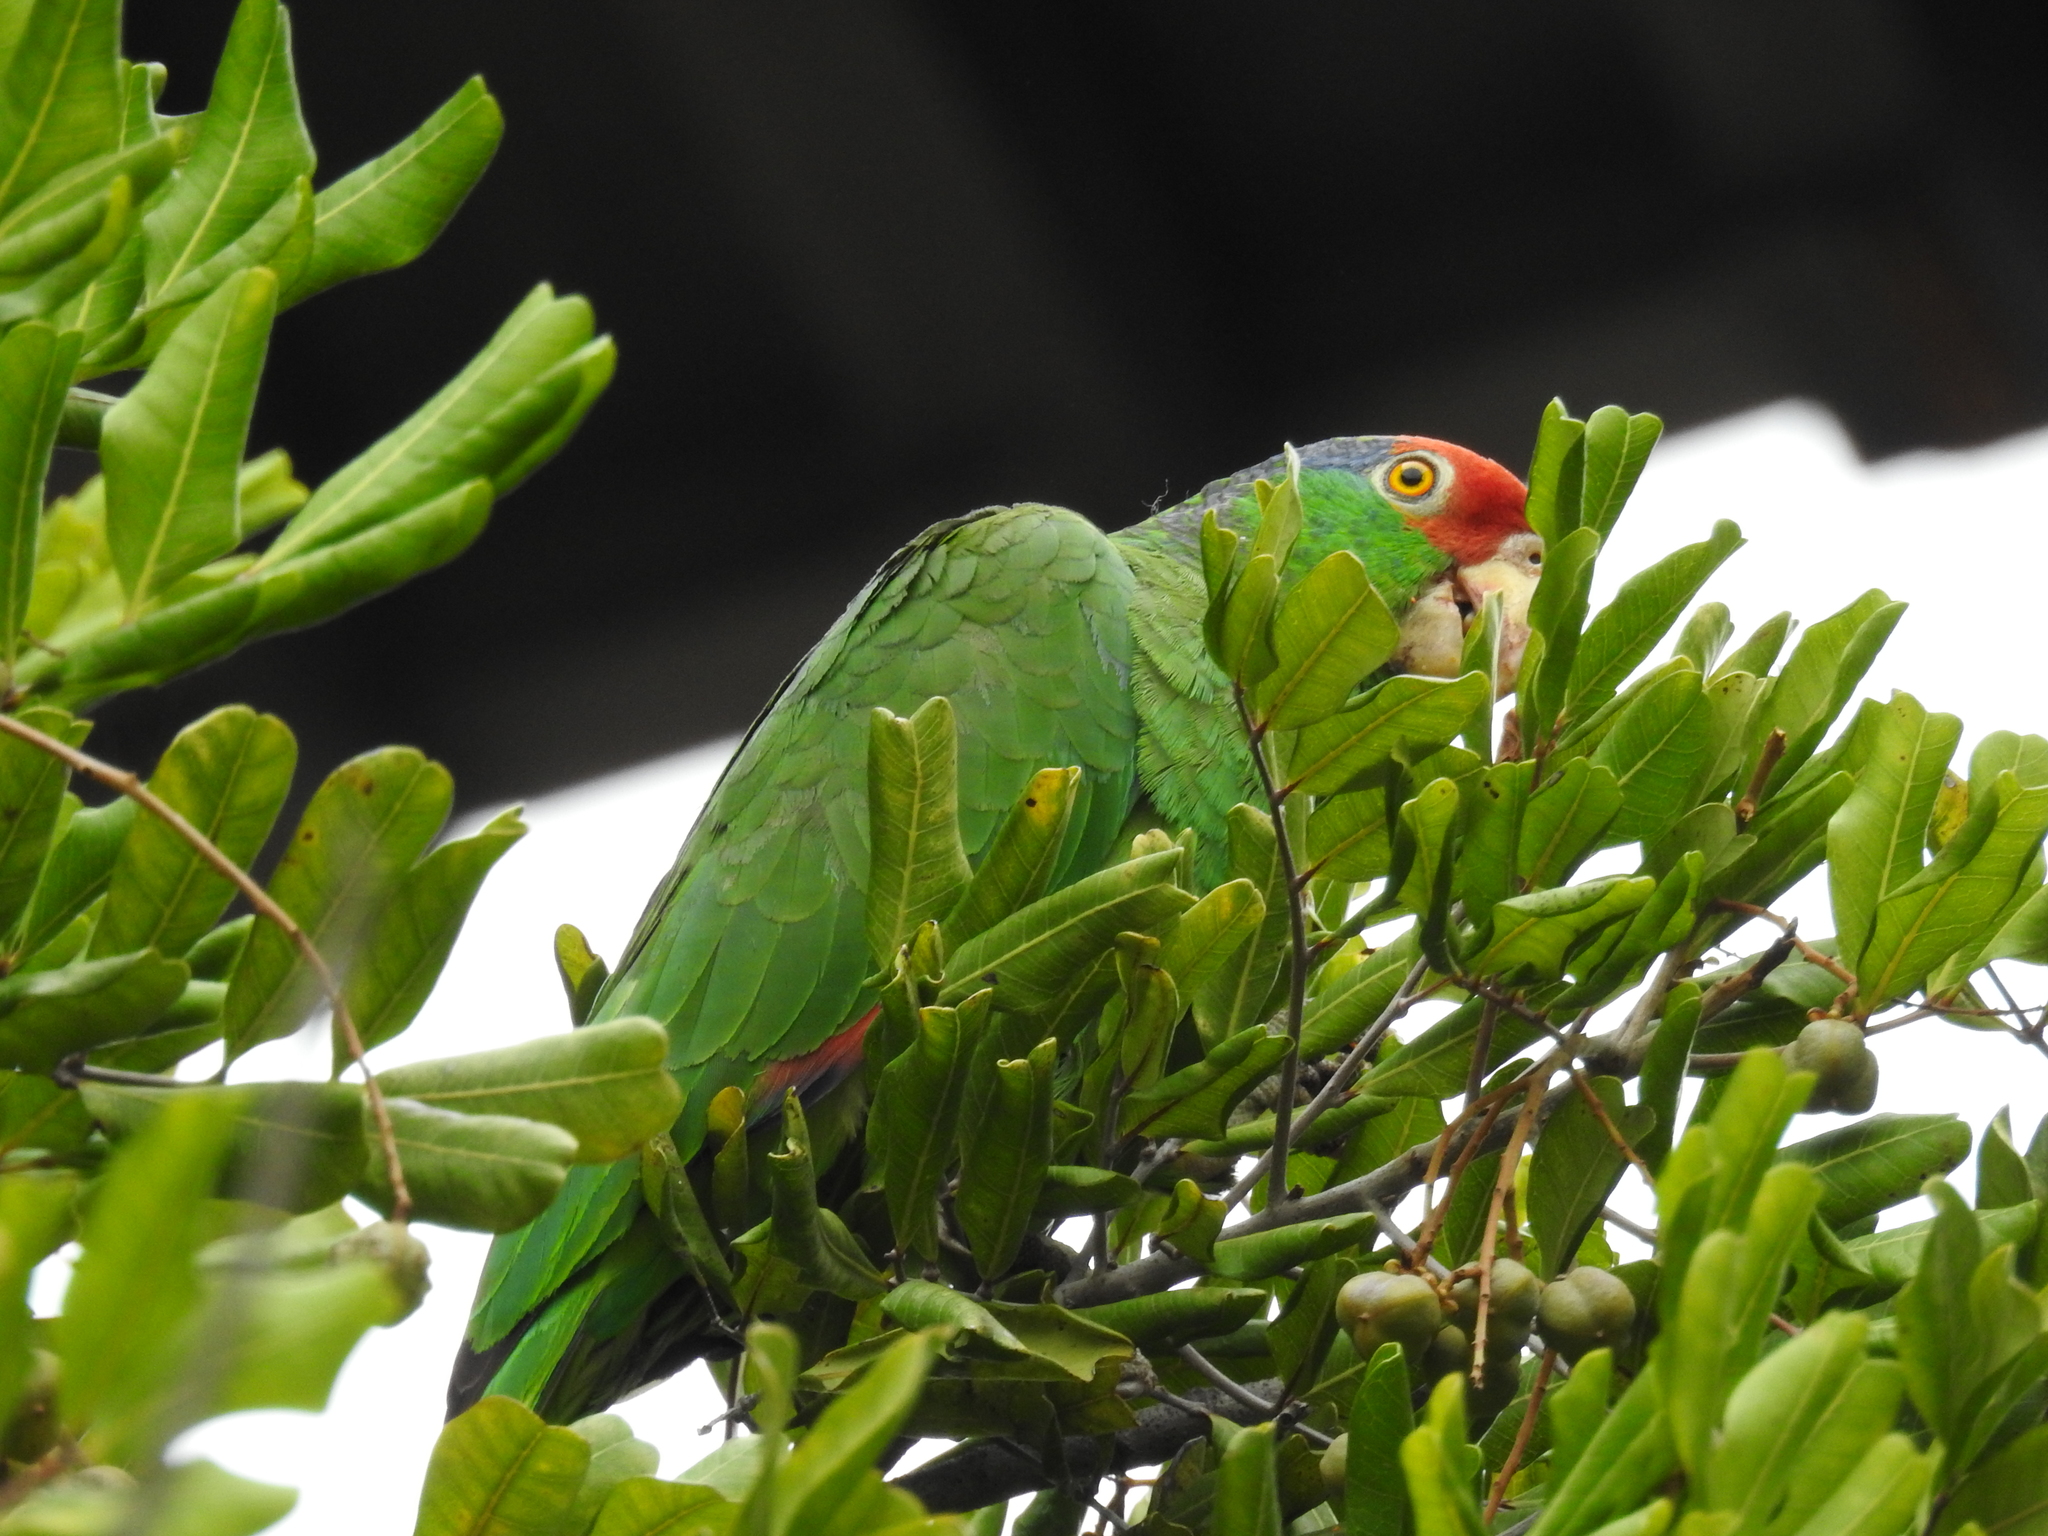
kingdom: Animalia
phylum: Chordata
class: Aves
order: Psittaciformes
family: Psittacidae
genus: Amazona
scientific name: Amazona viridigenalis
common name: Red-crowned amazon
